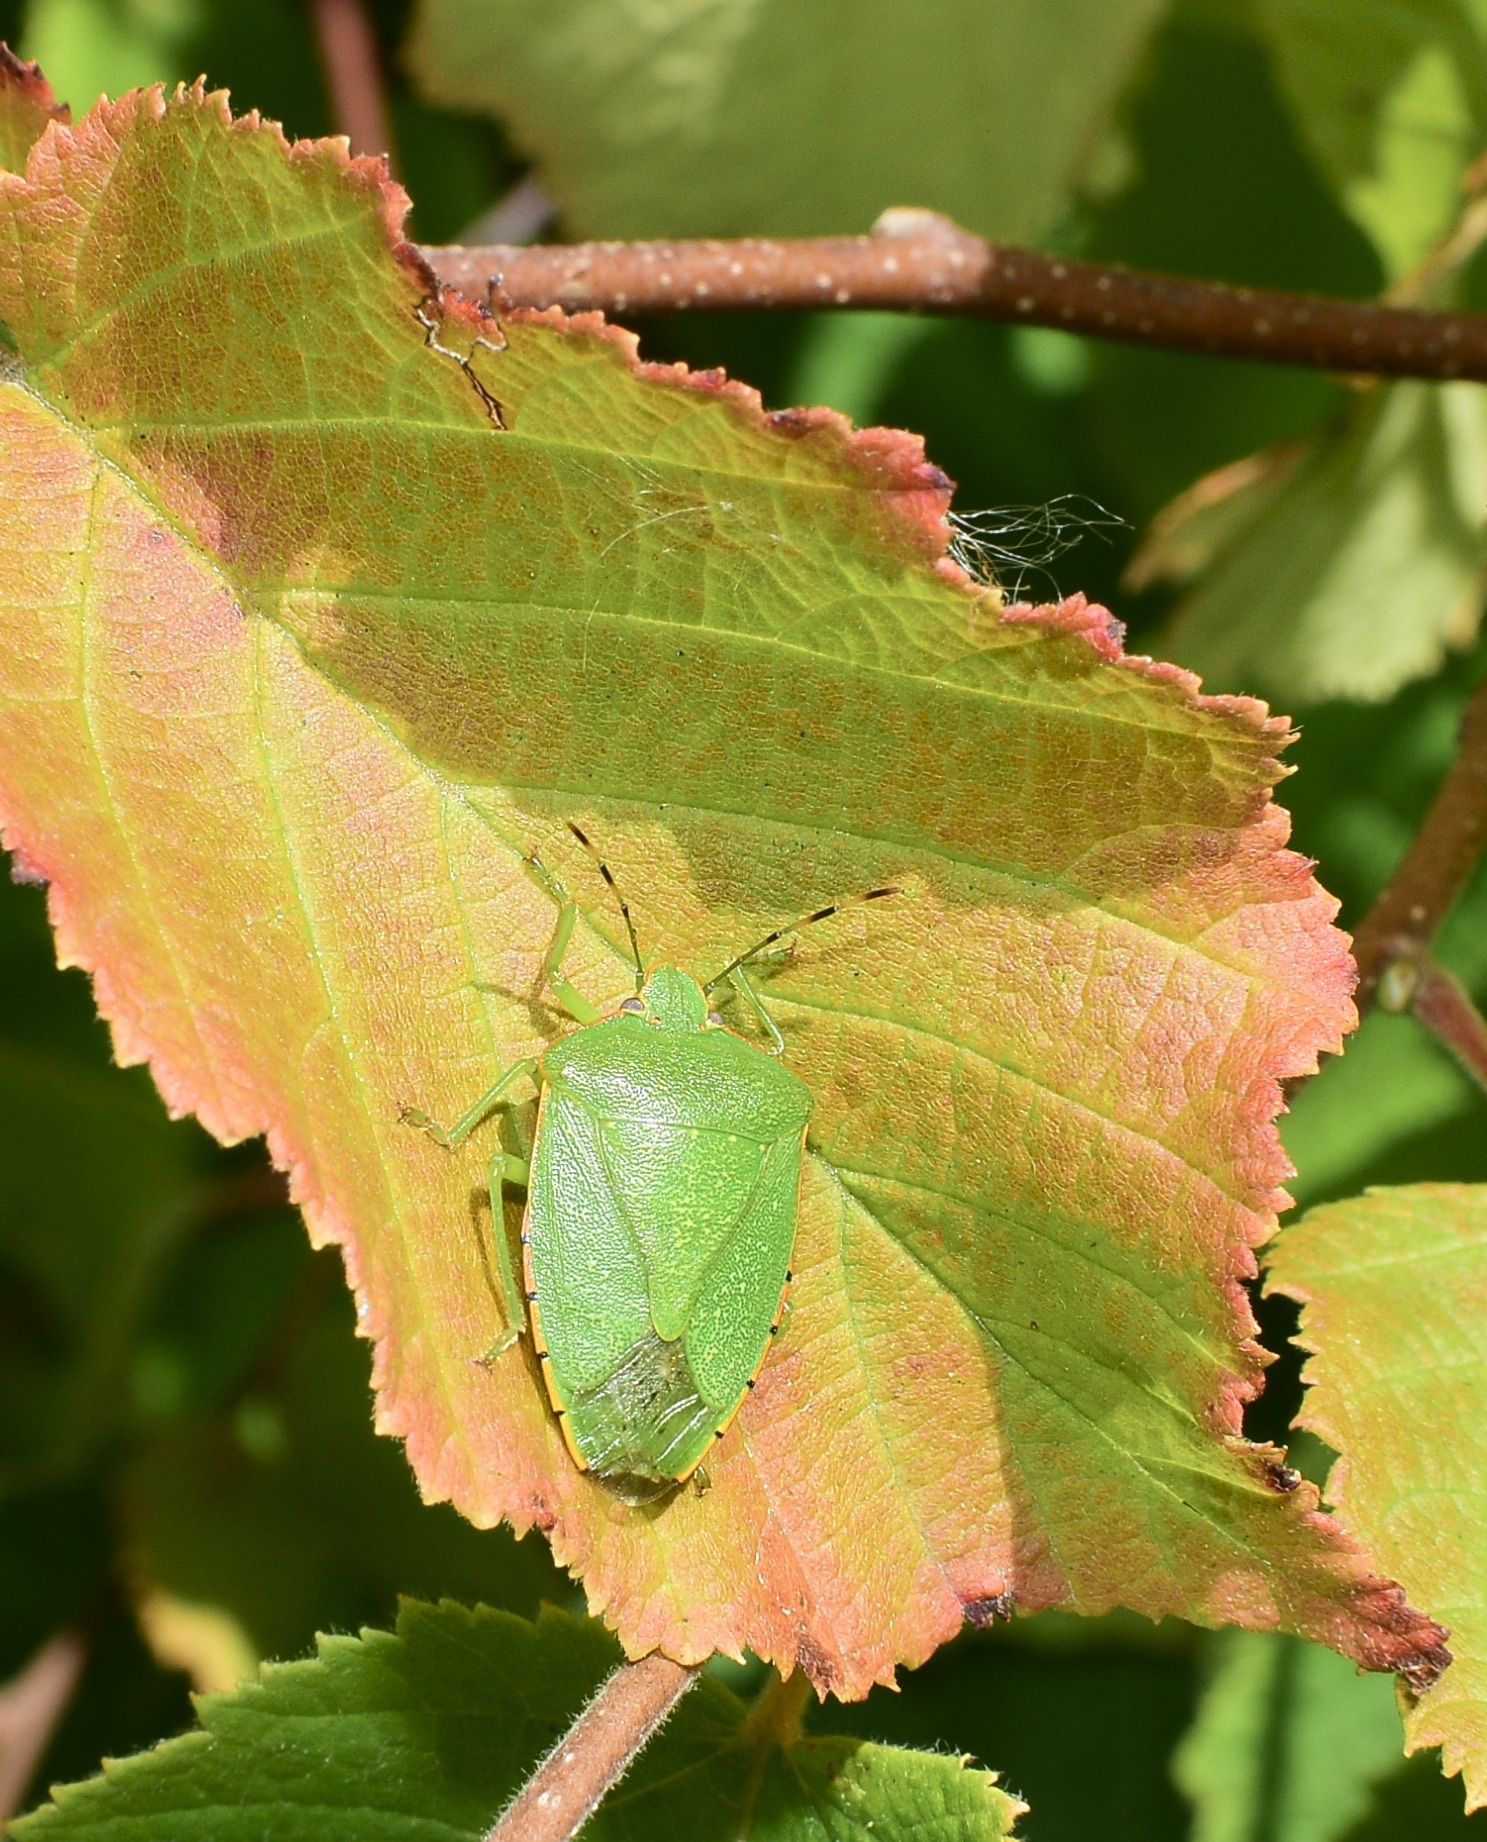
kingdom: Animalia
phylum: Arthropoda
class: Insecta
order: Hemiptera
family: Pentatomidae
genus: Chinavia
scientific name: Chinavia hilaris
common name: Green stink bug
